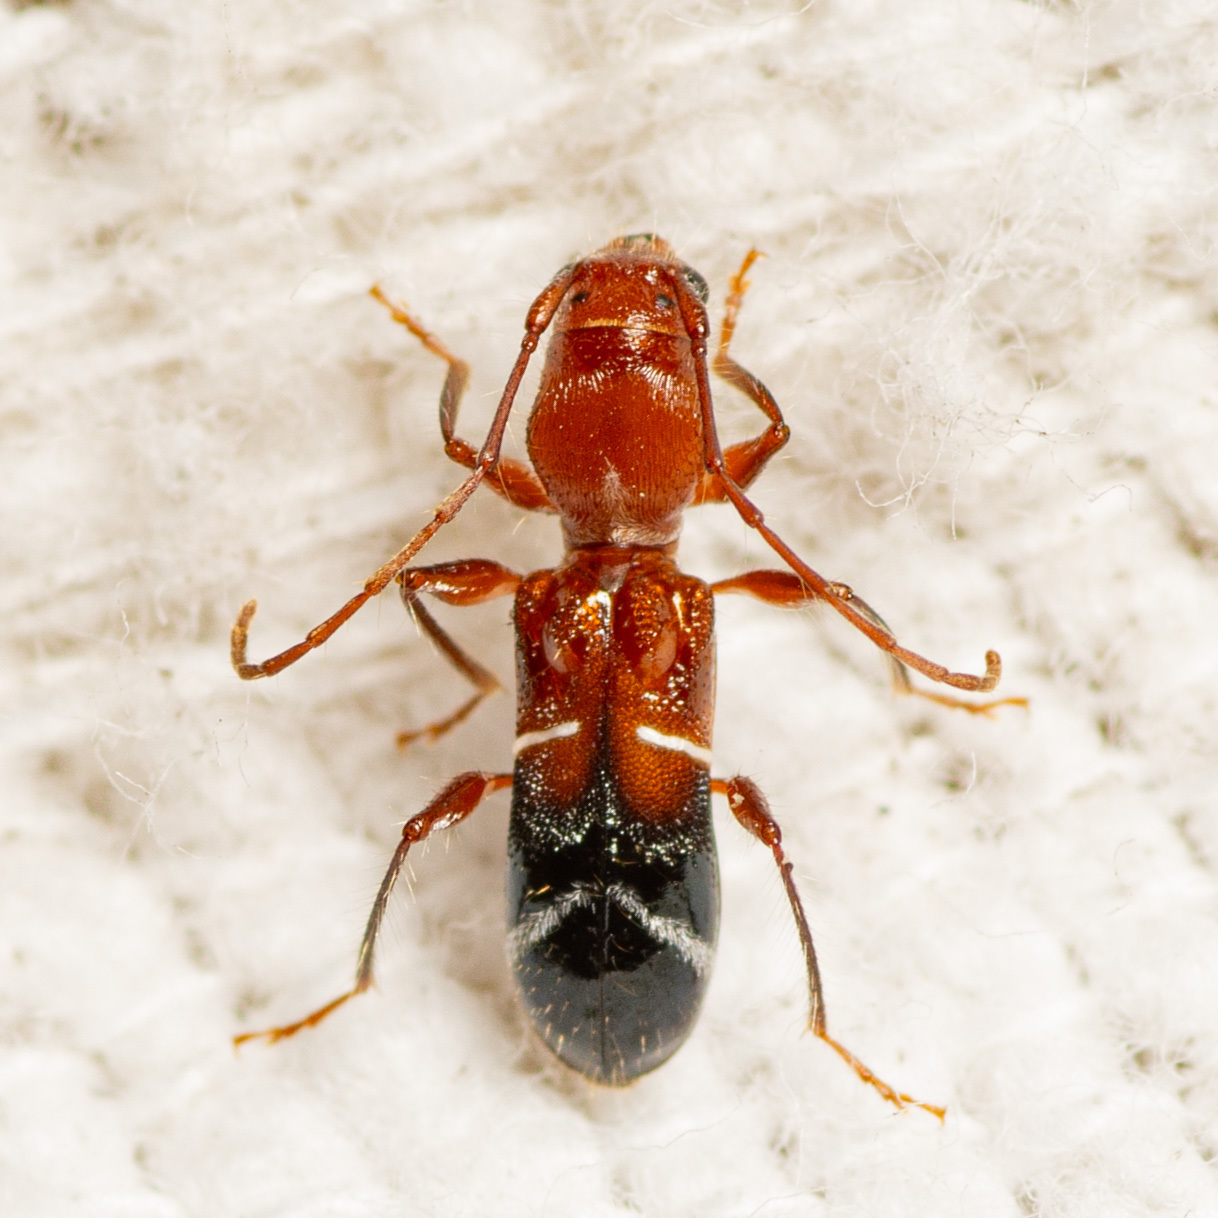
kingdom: Animalia
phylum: Arthropoda
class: Insecta
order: Coleoptera
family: Cerambycidae
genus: Euderces
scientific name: Euderces pini
